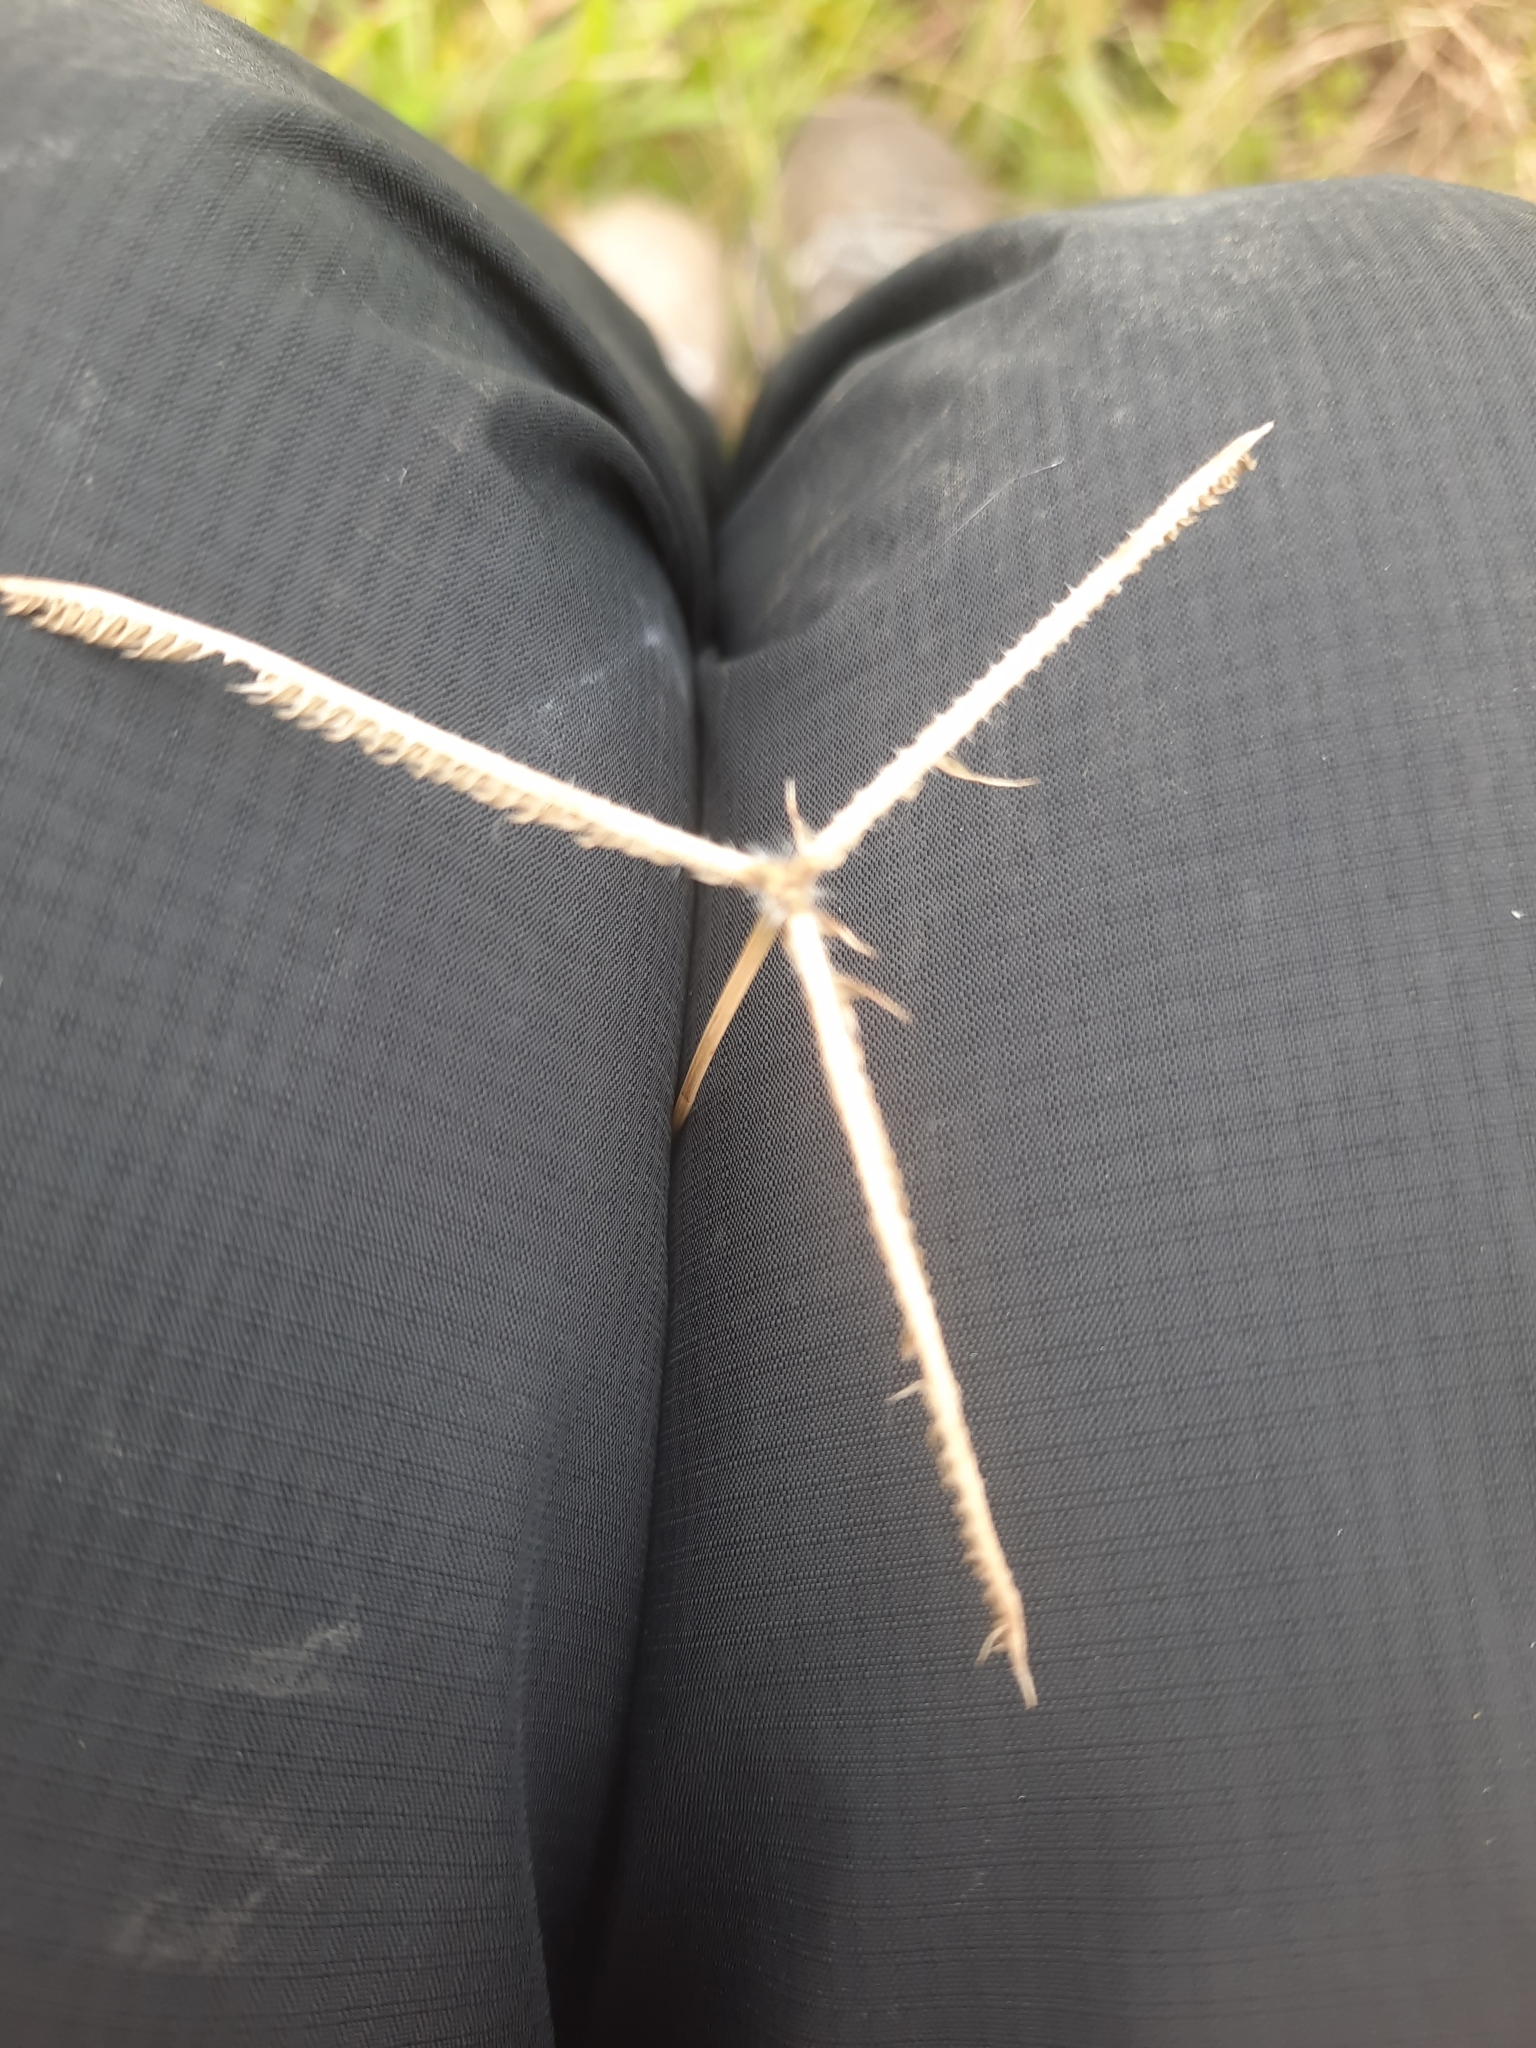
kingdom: Plantae
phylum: Tracheophyta
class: Liliopsida
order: Poales
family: Poaceae
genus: Dactyloctenium
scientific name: Dactyloctenium aegyptium
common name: Egyptian grass
